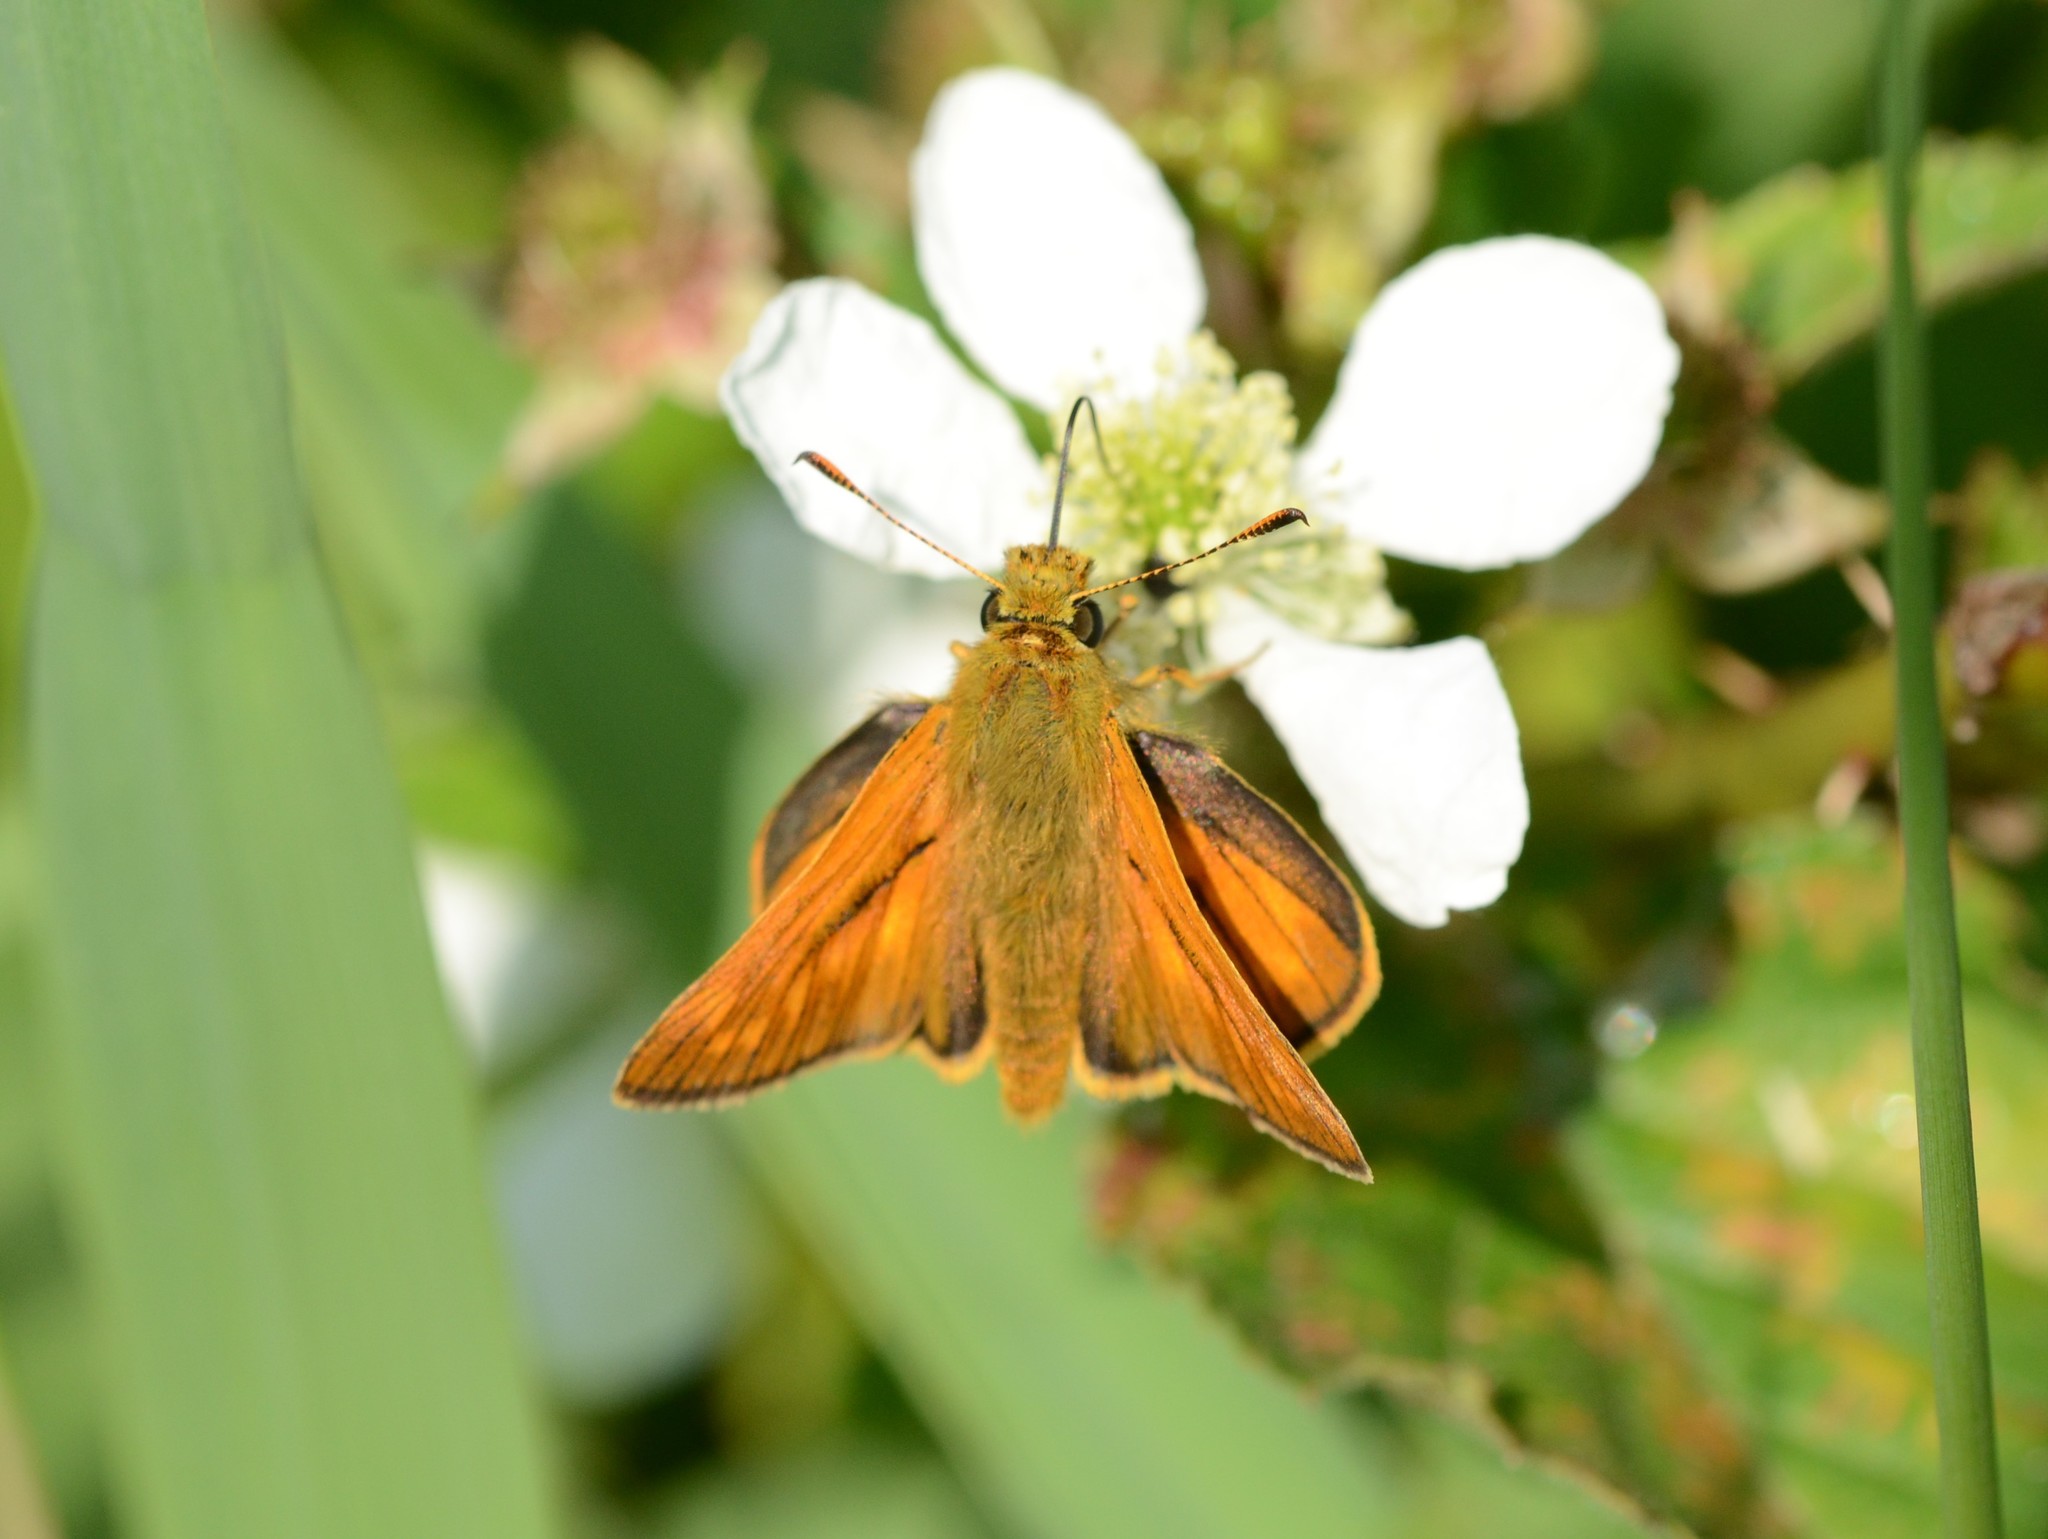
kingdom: Animalia
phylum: Arthropoda
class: Insecta
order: Lepidoptera
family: Hesperiidae
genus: Ochlodes
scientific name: Ochlodes venata
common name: Large skipper
